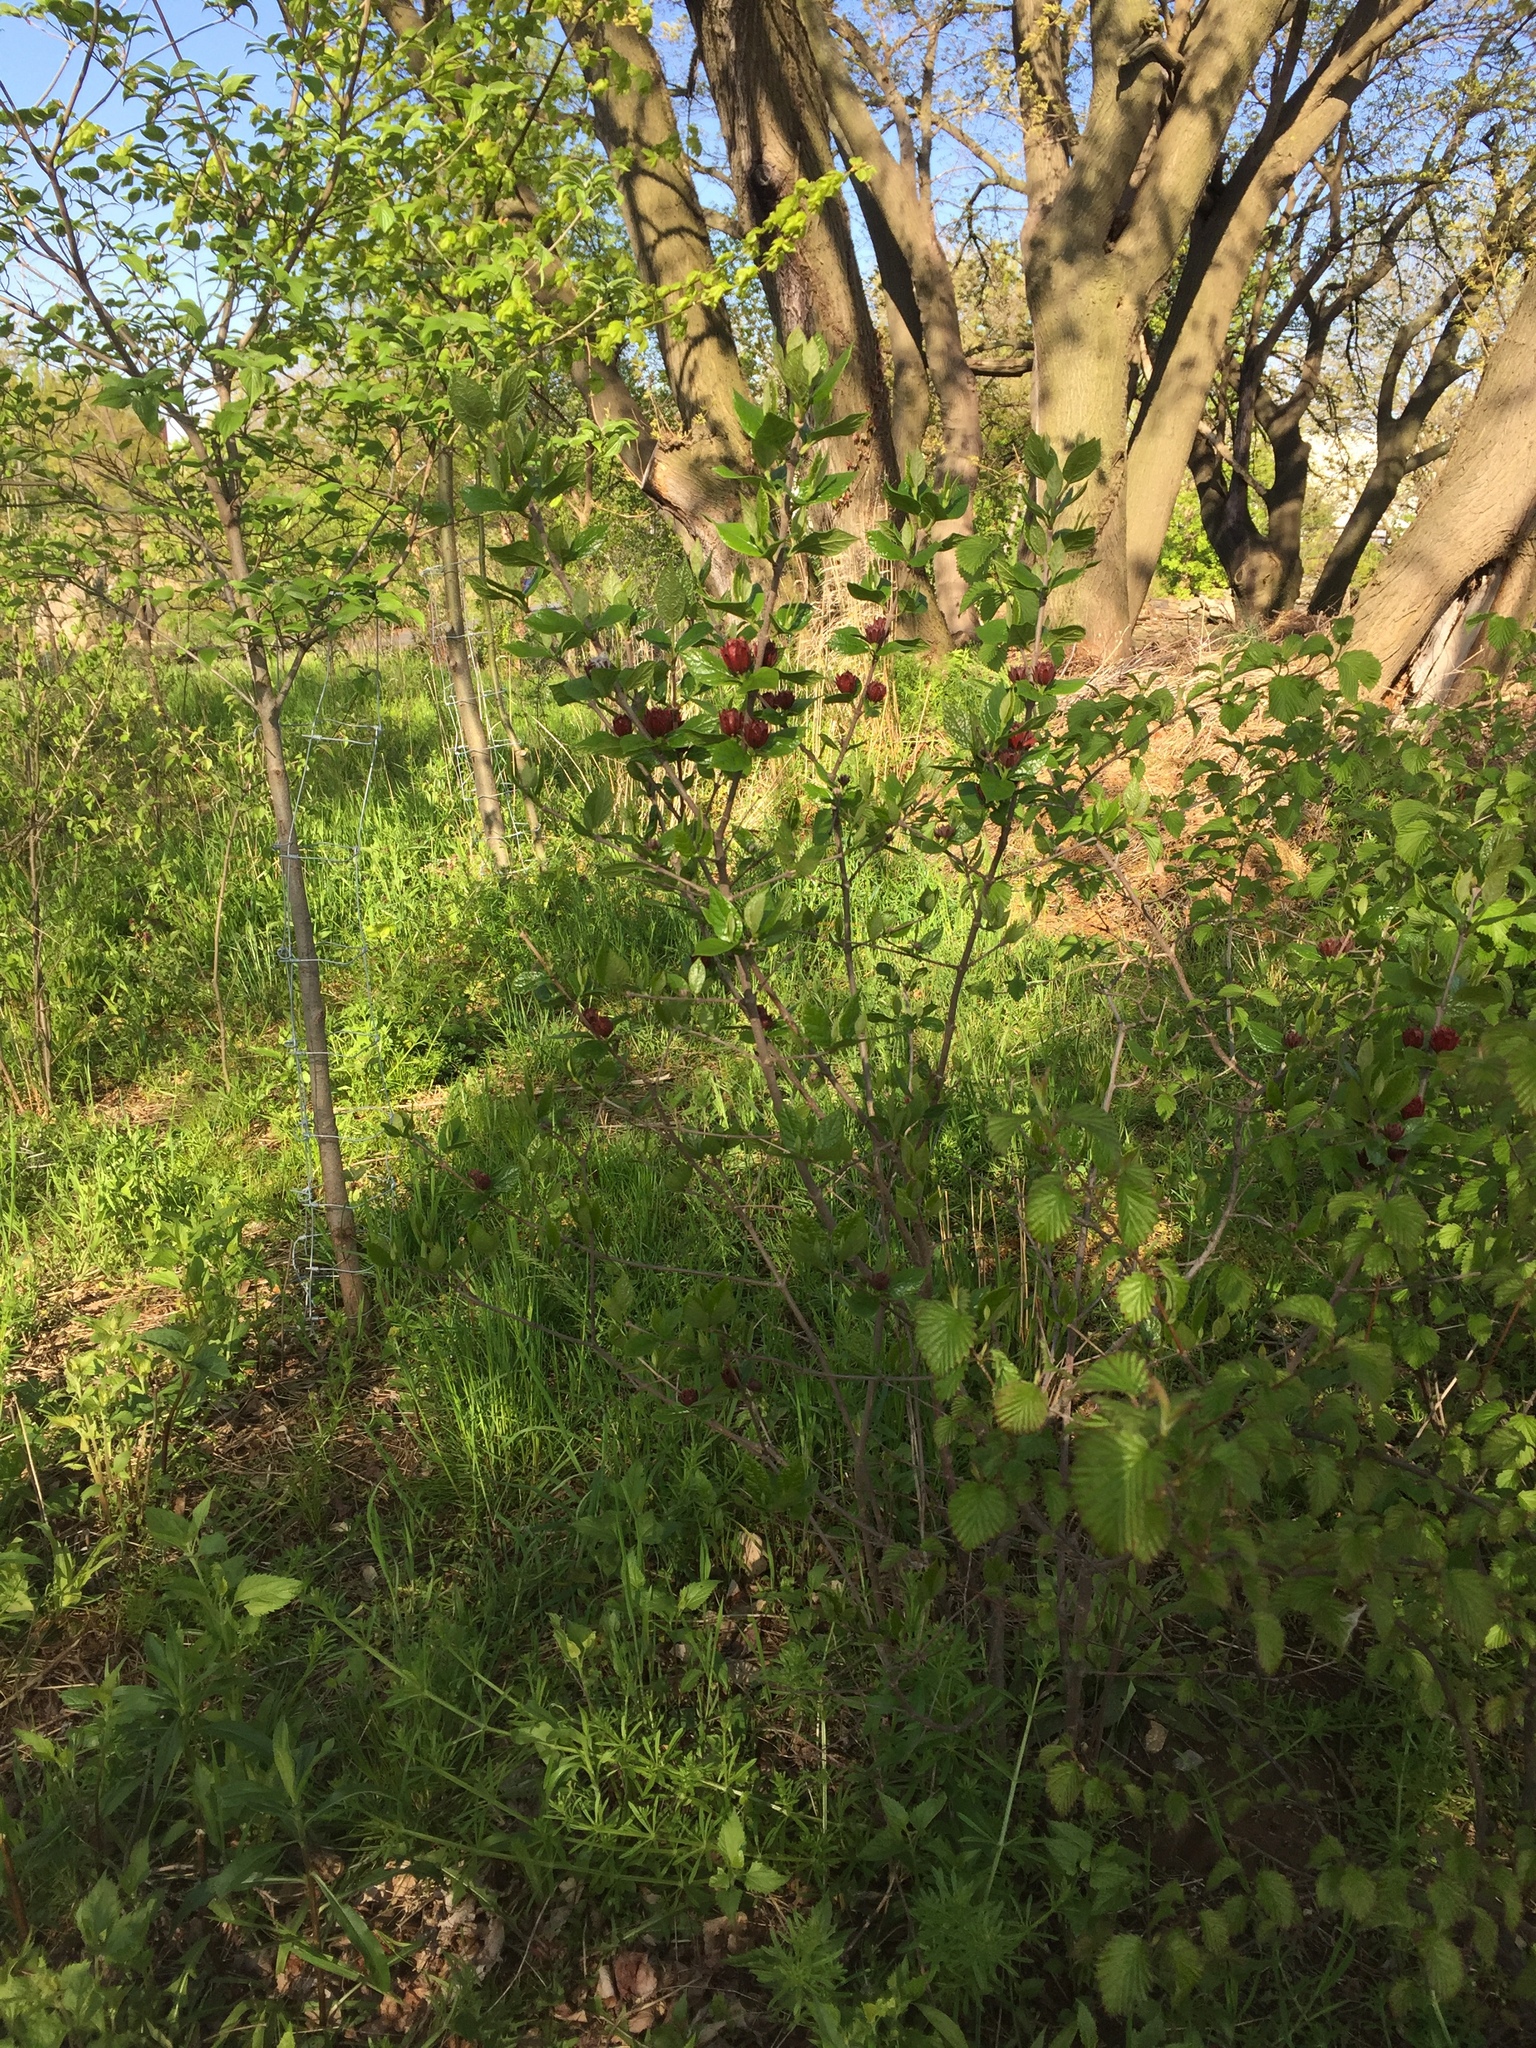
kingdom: Plantae
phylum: Tracheophyta
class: Magnoliopsida
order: Laurales
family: Calycanthaceae
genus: Calycanthus
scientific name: Calycanthus floridus
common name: Carolina-allspice
